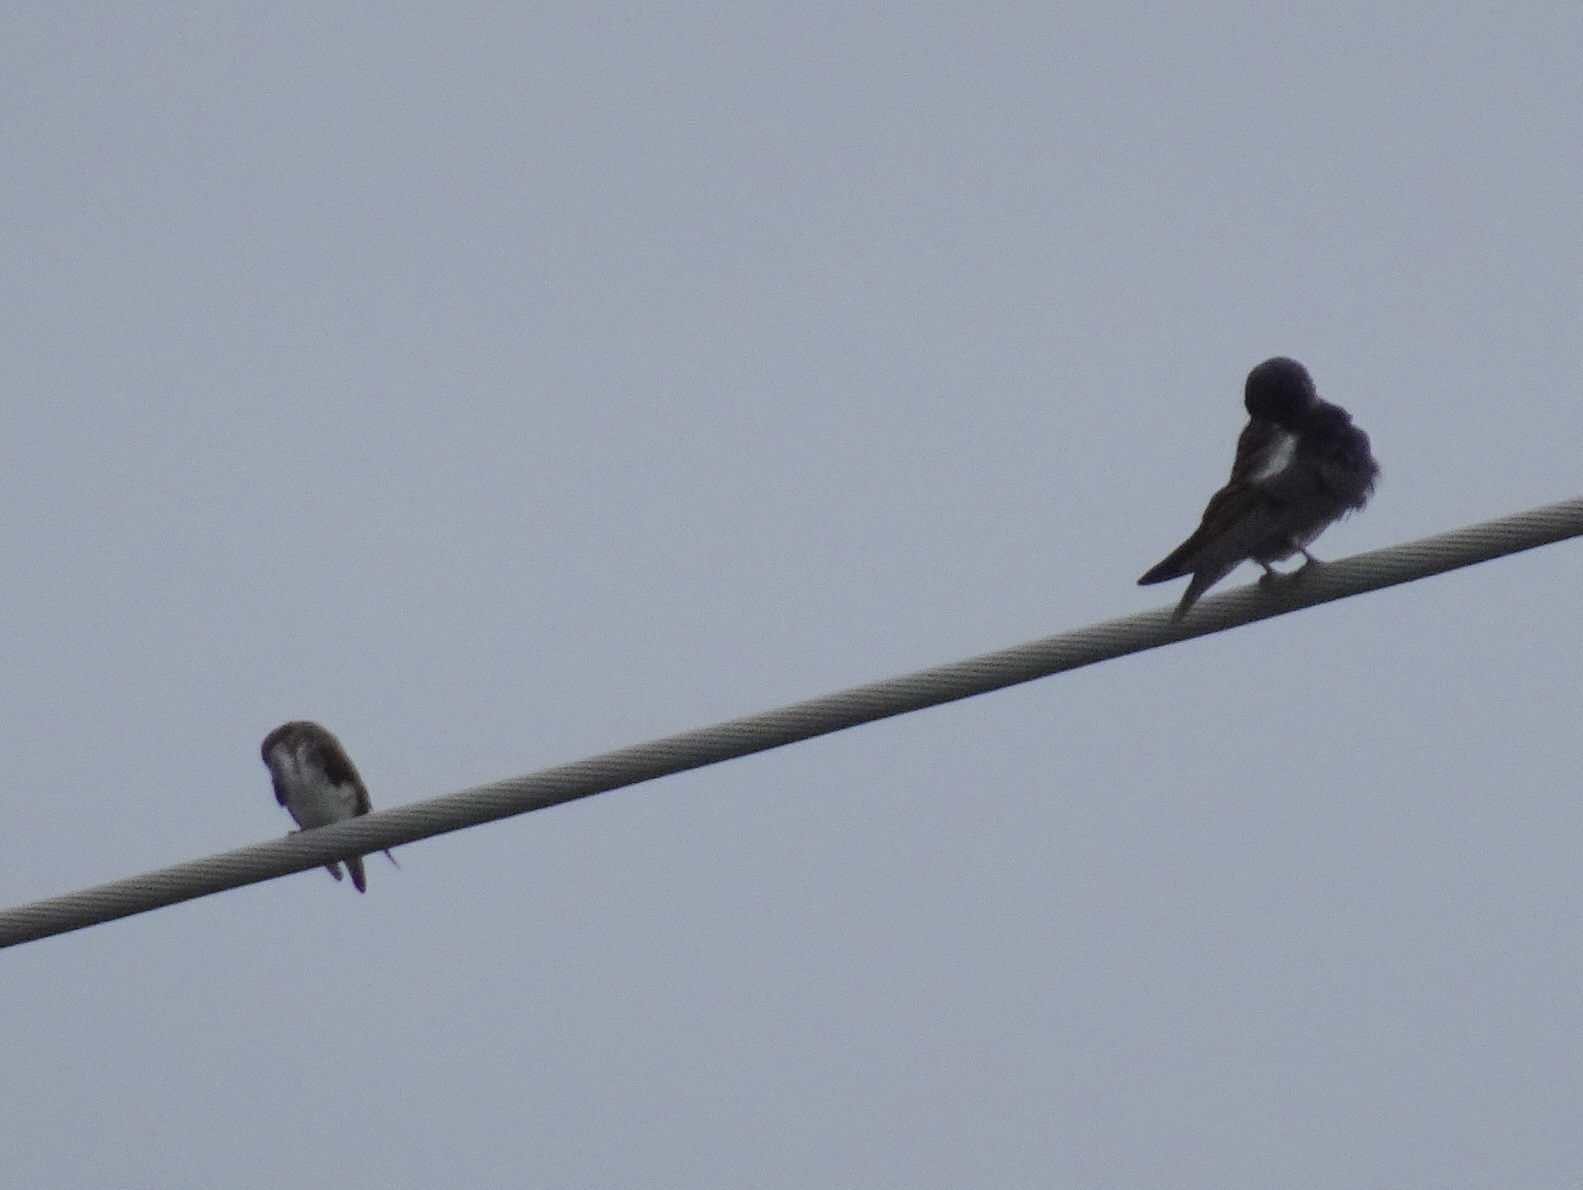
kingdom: Animalia
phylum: Chordata
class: Aves
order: Passeriformes
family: Hirundinidae
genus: Progne
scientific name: Progne subis
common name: Purple martin
